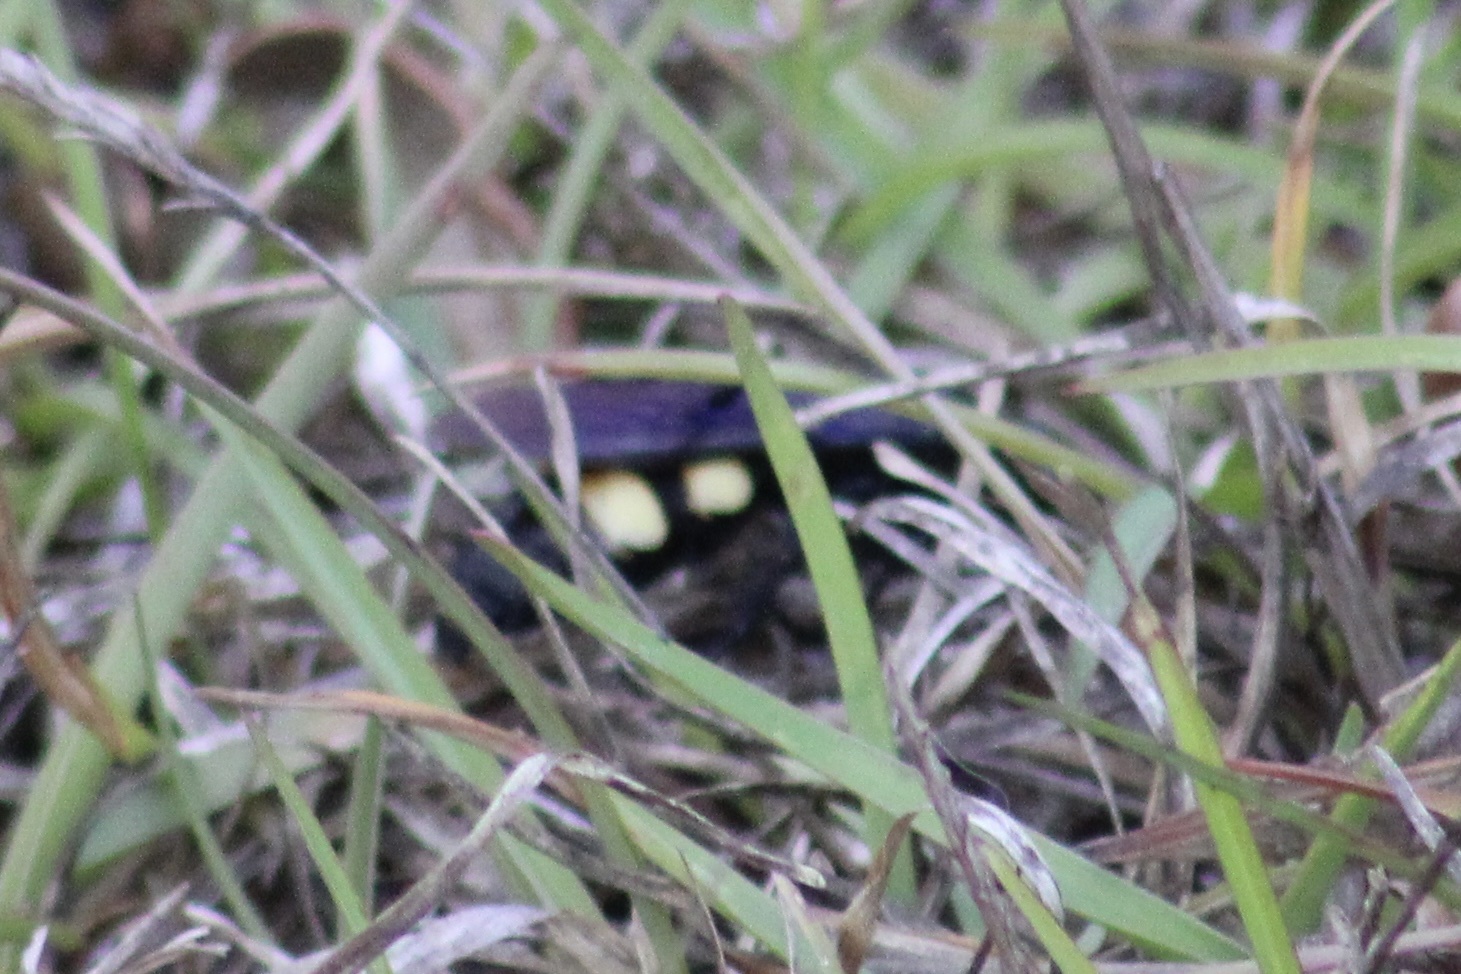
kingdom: Animalia
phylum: Arthropoda
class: Insecta
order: Hymenoptera
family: Scoliidae
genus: Pygodasis
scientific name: Pygodasis
